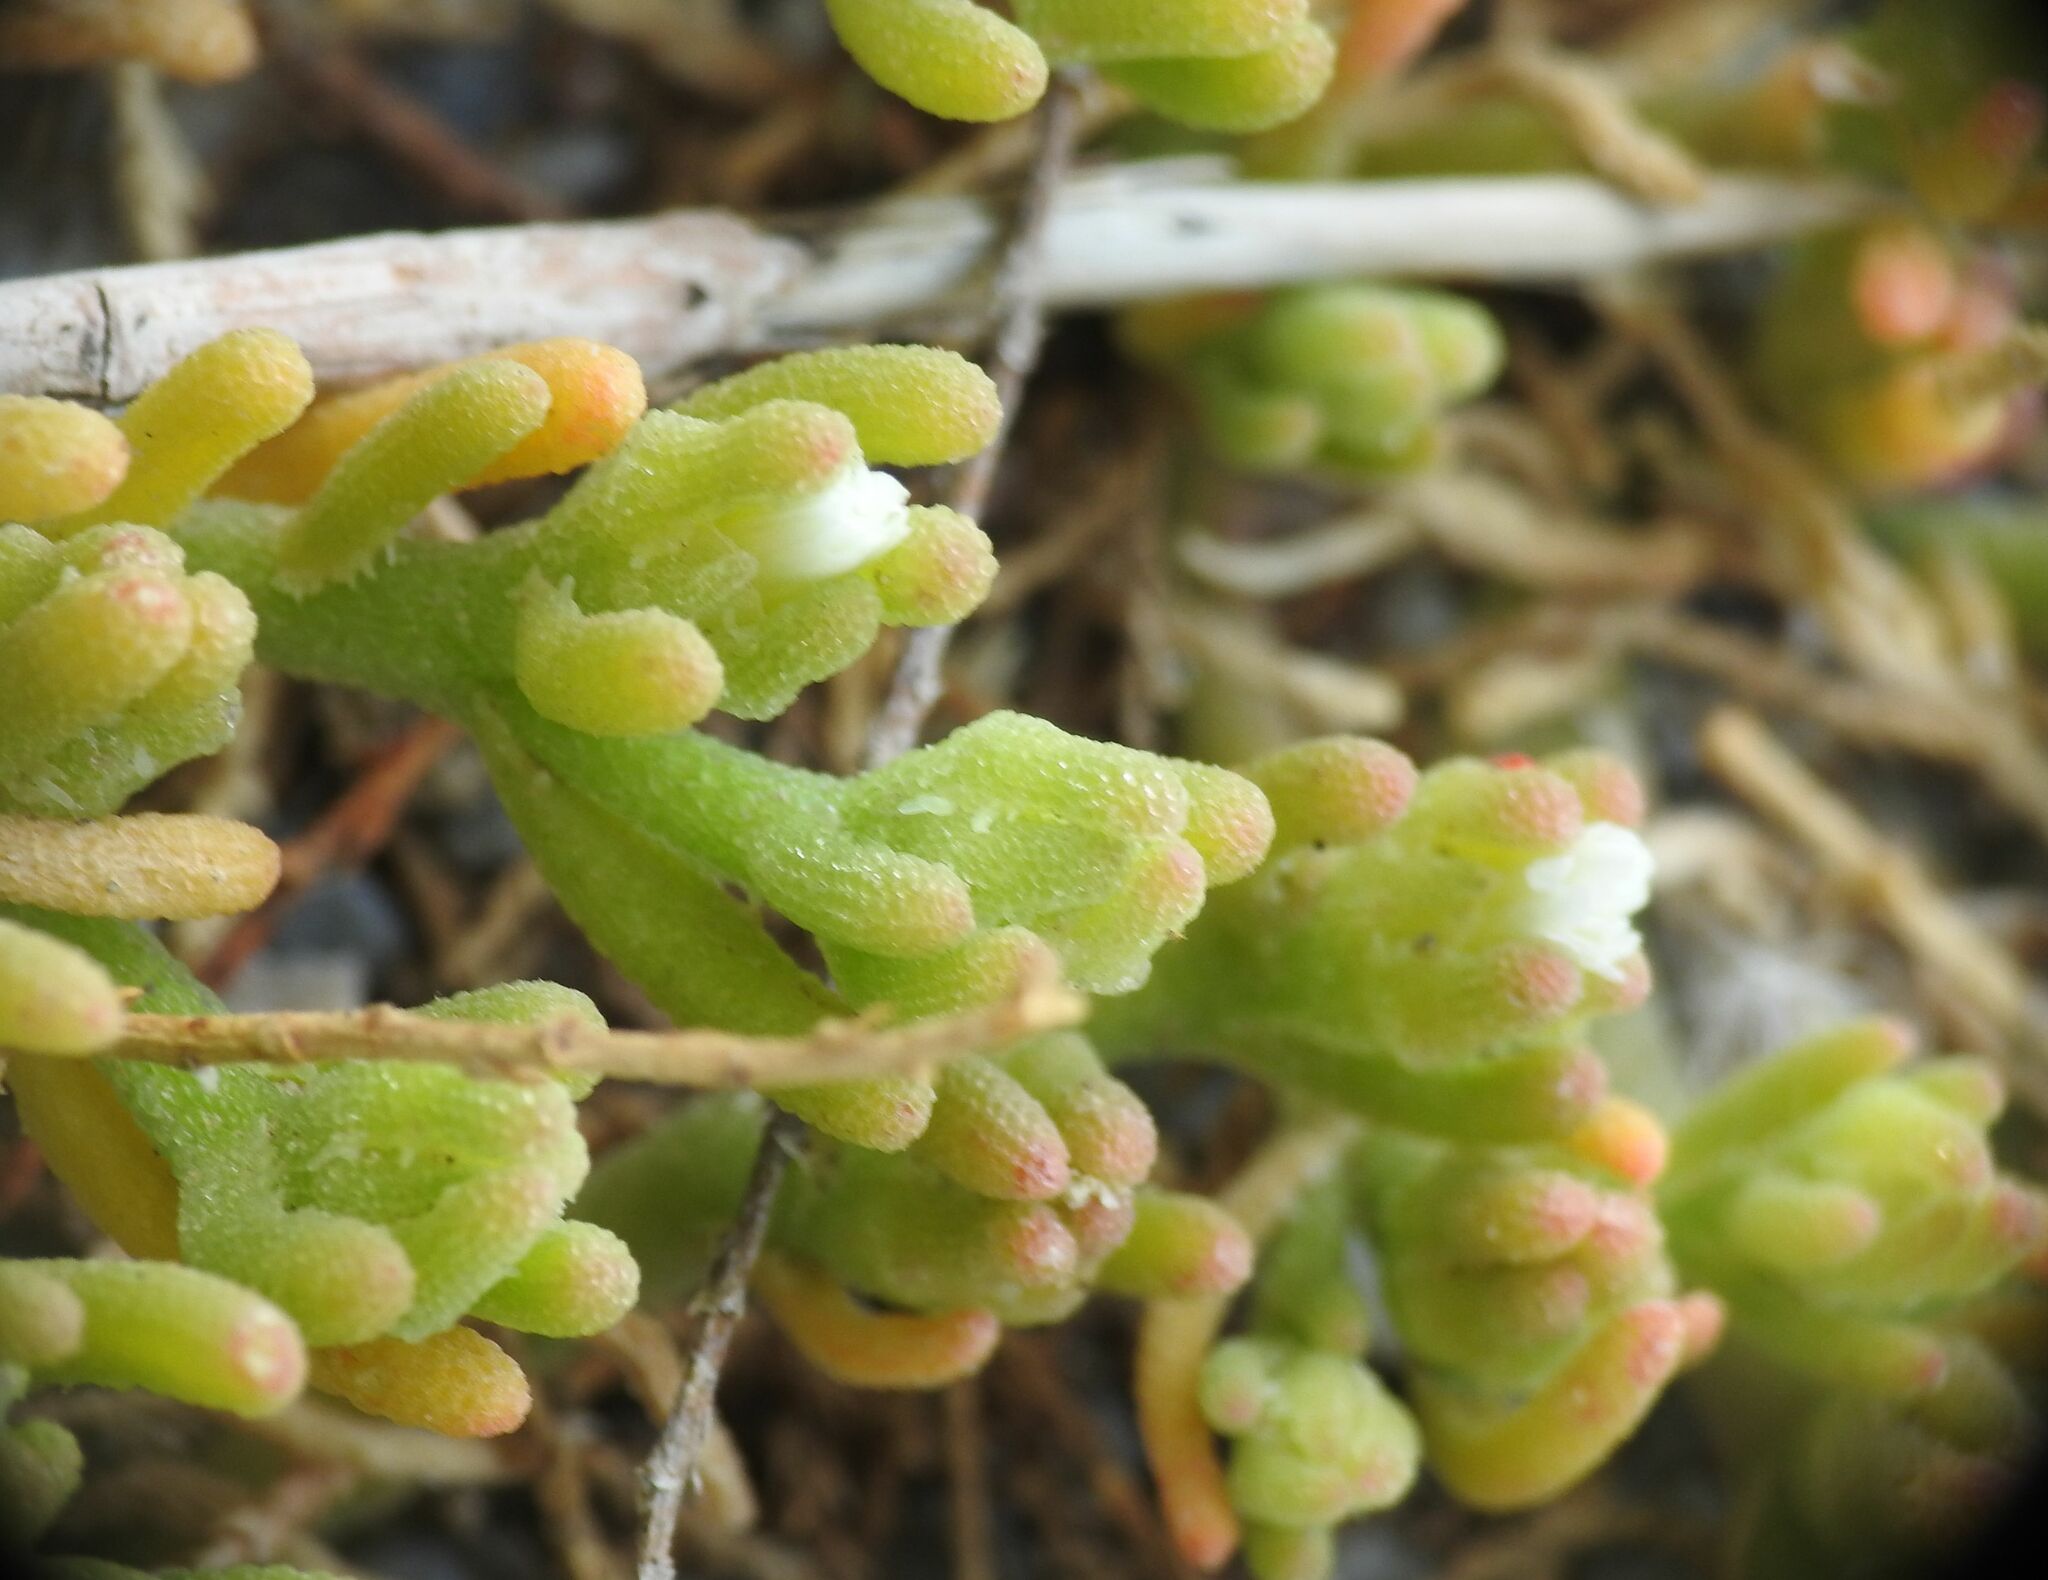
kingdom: Plantae
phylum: Tracheophyta
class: Magnoliopsida
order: Caryophyllales
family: Aizoaceae
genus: Mesembryanthemum
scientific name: Mesembryanthemum nodiflorum
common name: Slenderleaf iceplant
